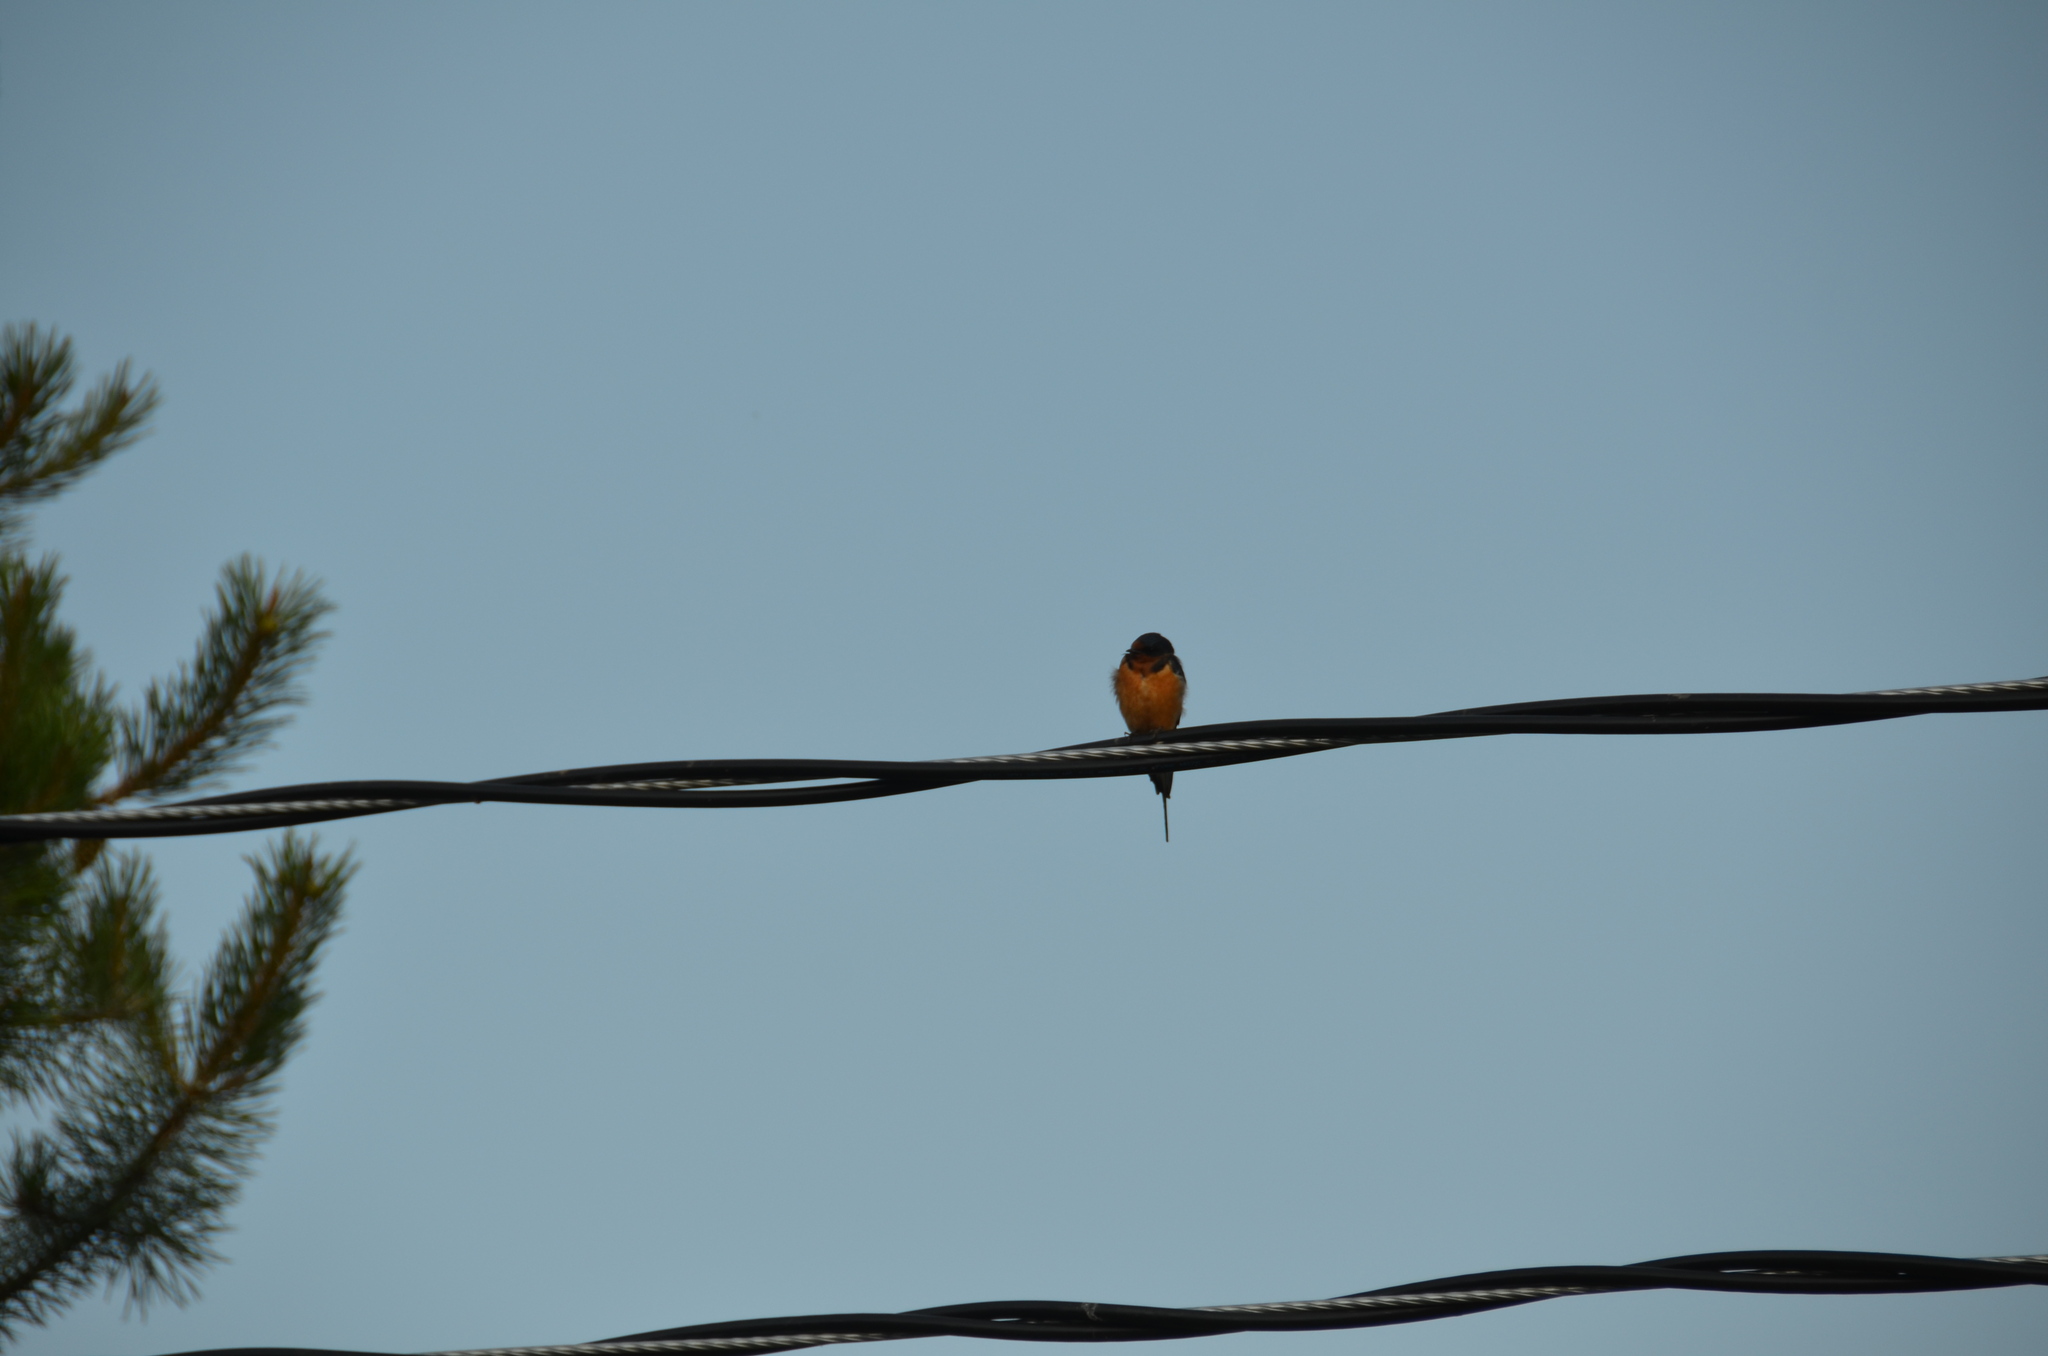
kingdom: Animalia
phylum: Chordata
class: Aves
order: Passeriformes
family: Hirundinidae
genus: Hirundo
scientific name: Hirundo rustica
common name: Barn swallow
